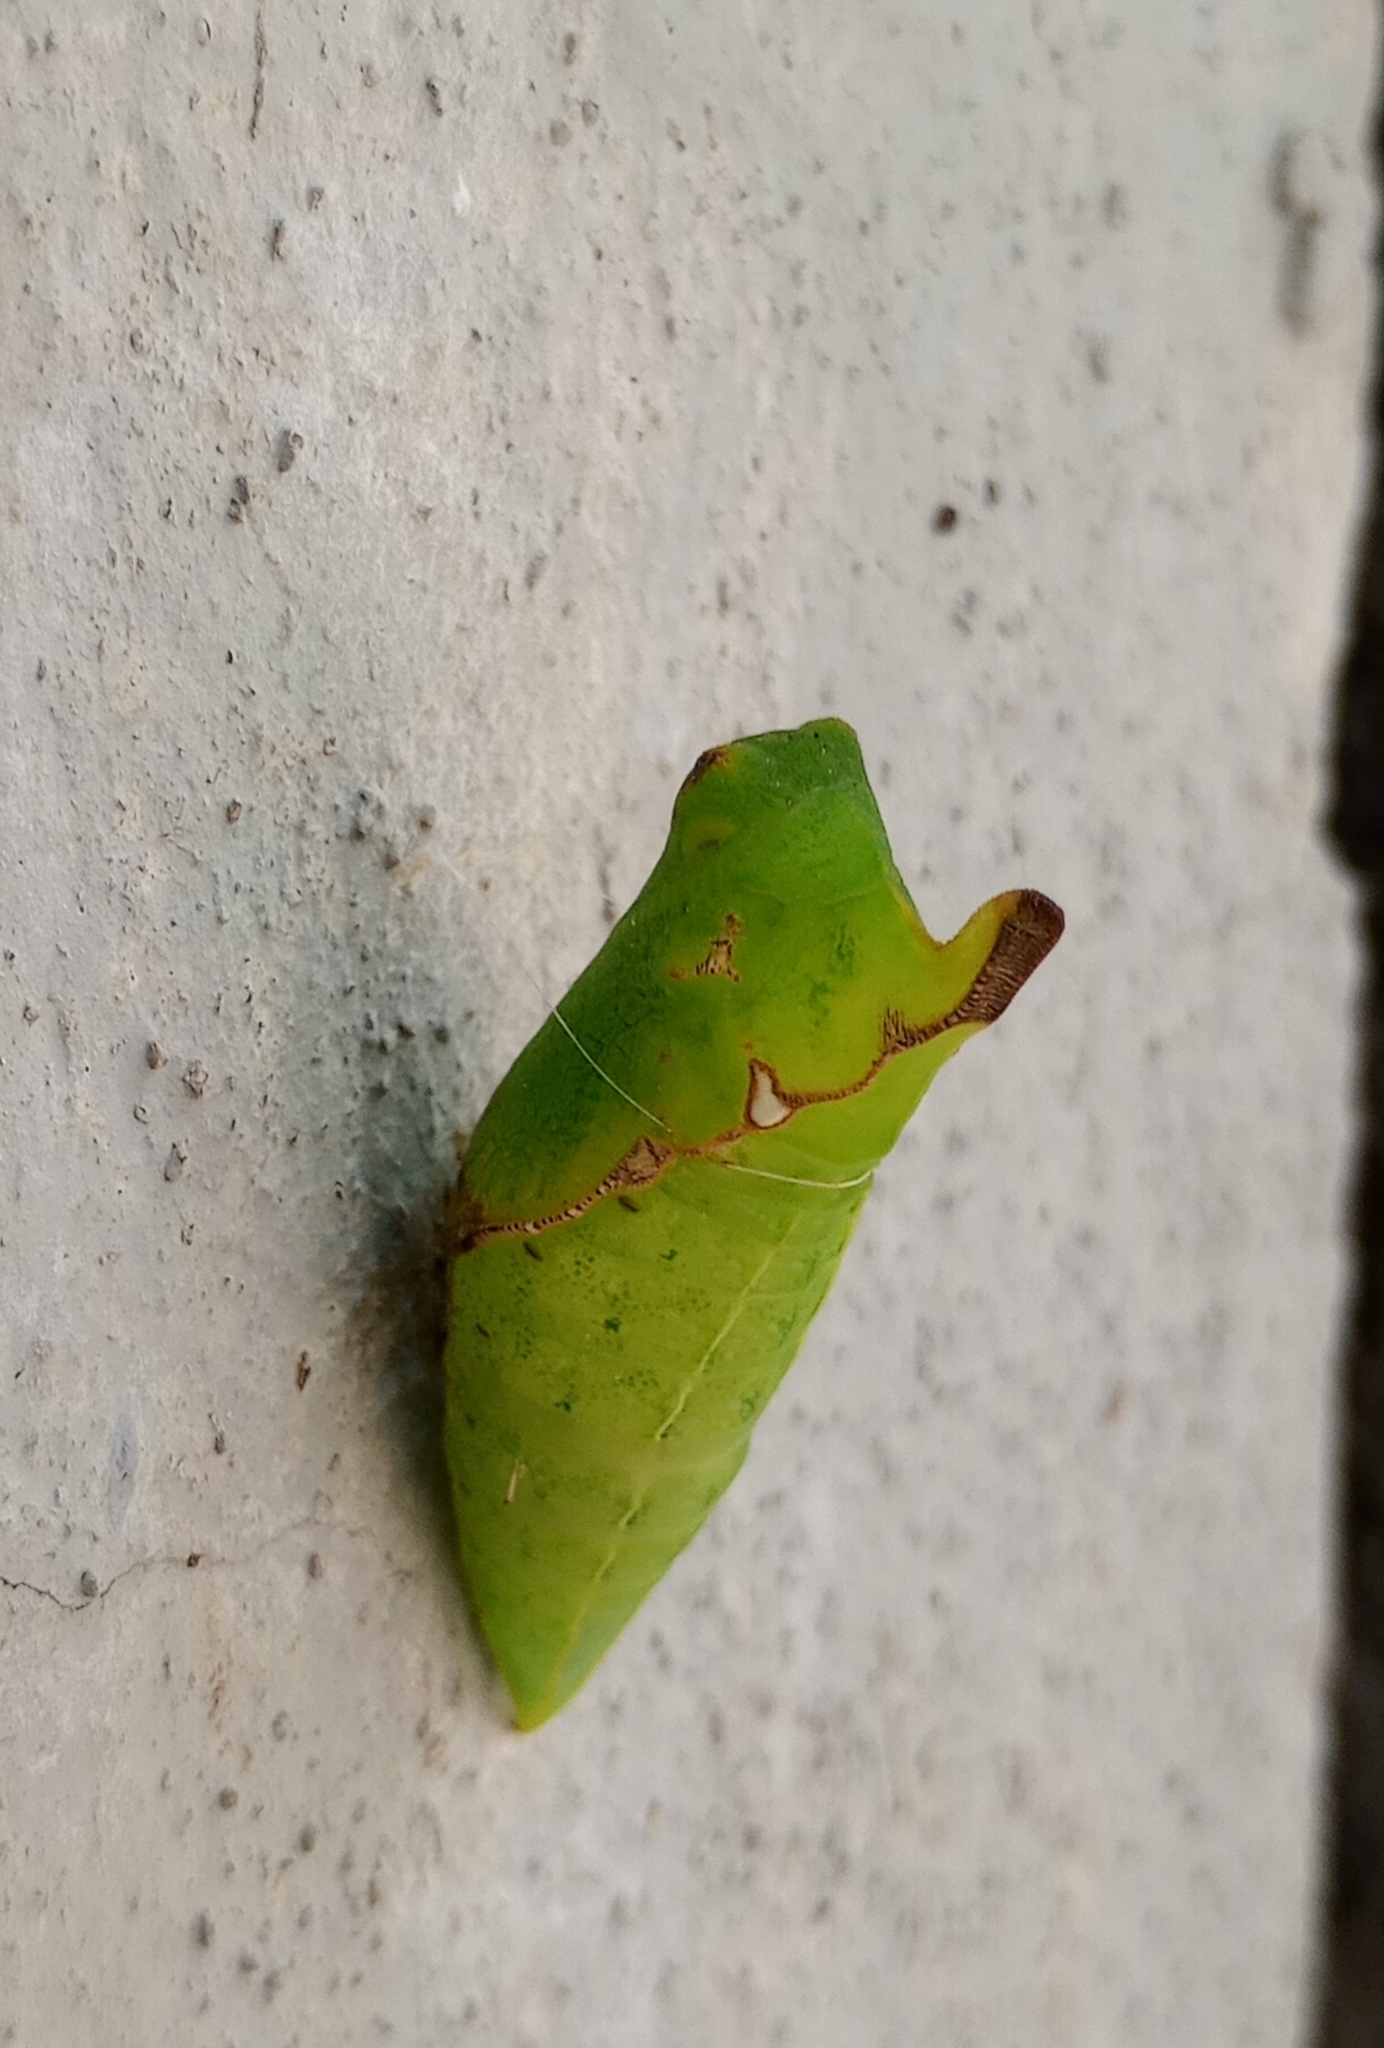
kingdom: Animalia
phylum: Arthropoda
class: Insecta
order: Lepidoptera
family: Papilionidae
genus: Graphium
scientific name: Graphium agamemnon
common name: Tailed jay
